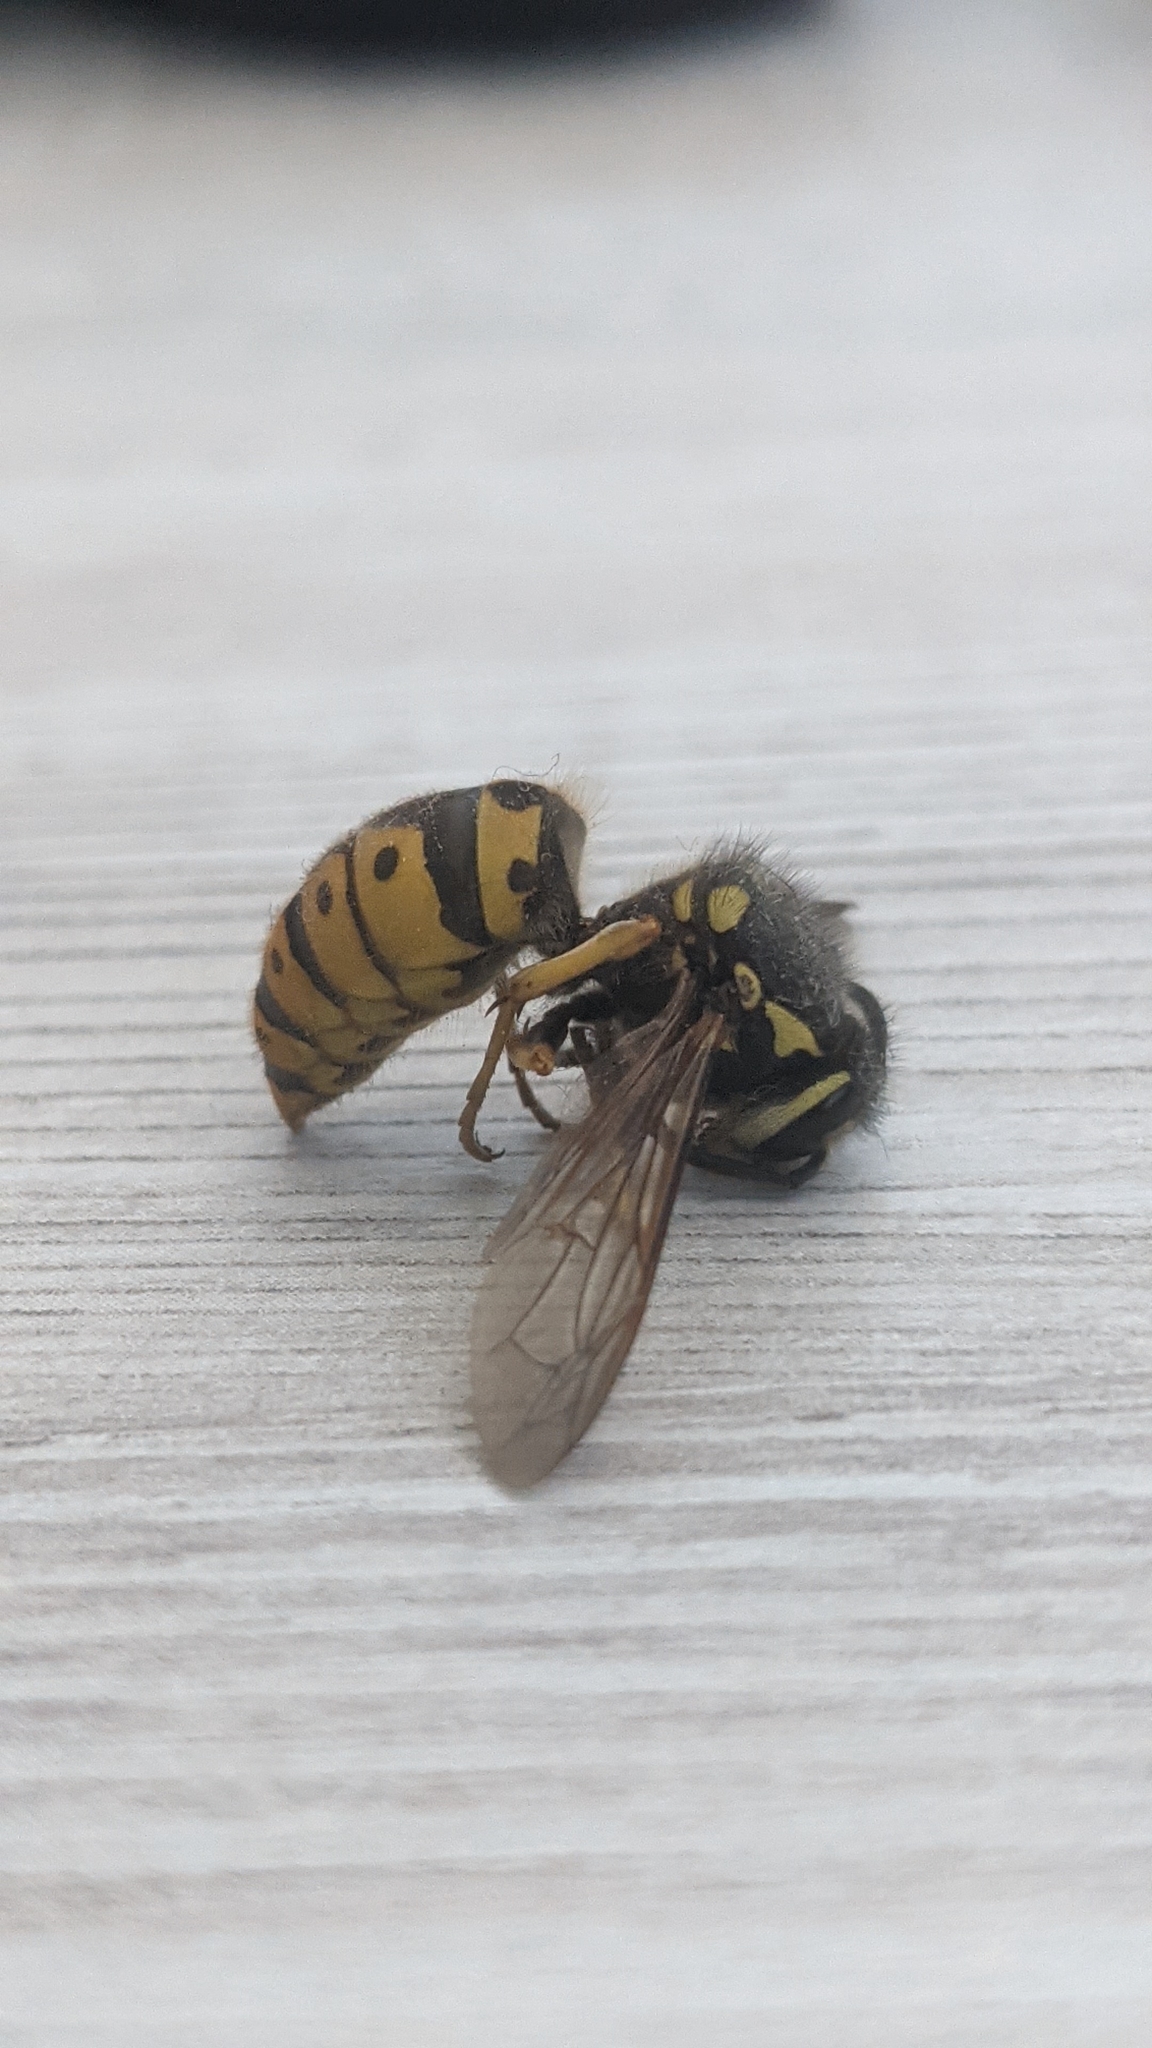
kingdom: Animalia
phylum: Arthropoda
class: Insecta
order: Hymenoptera
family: Vespidae
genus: Vespula
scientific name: Vespula germanica
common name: German wasp
